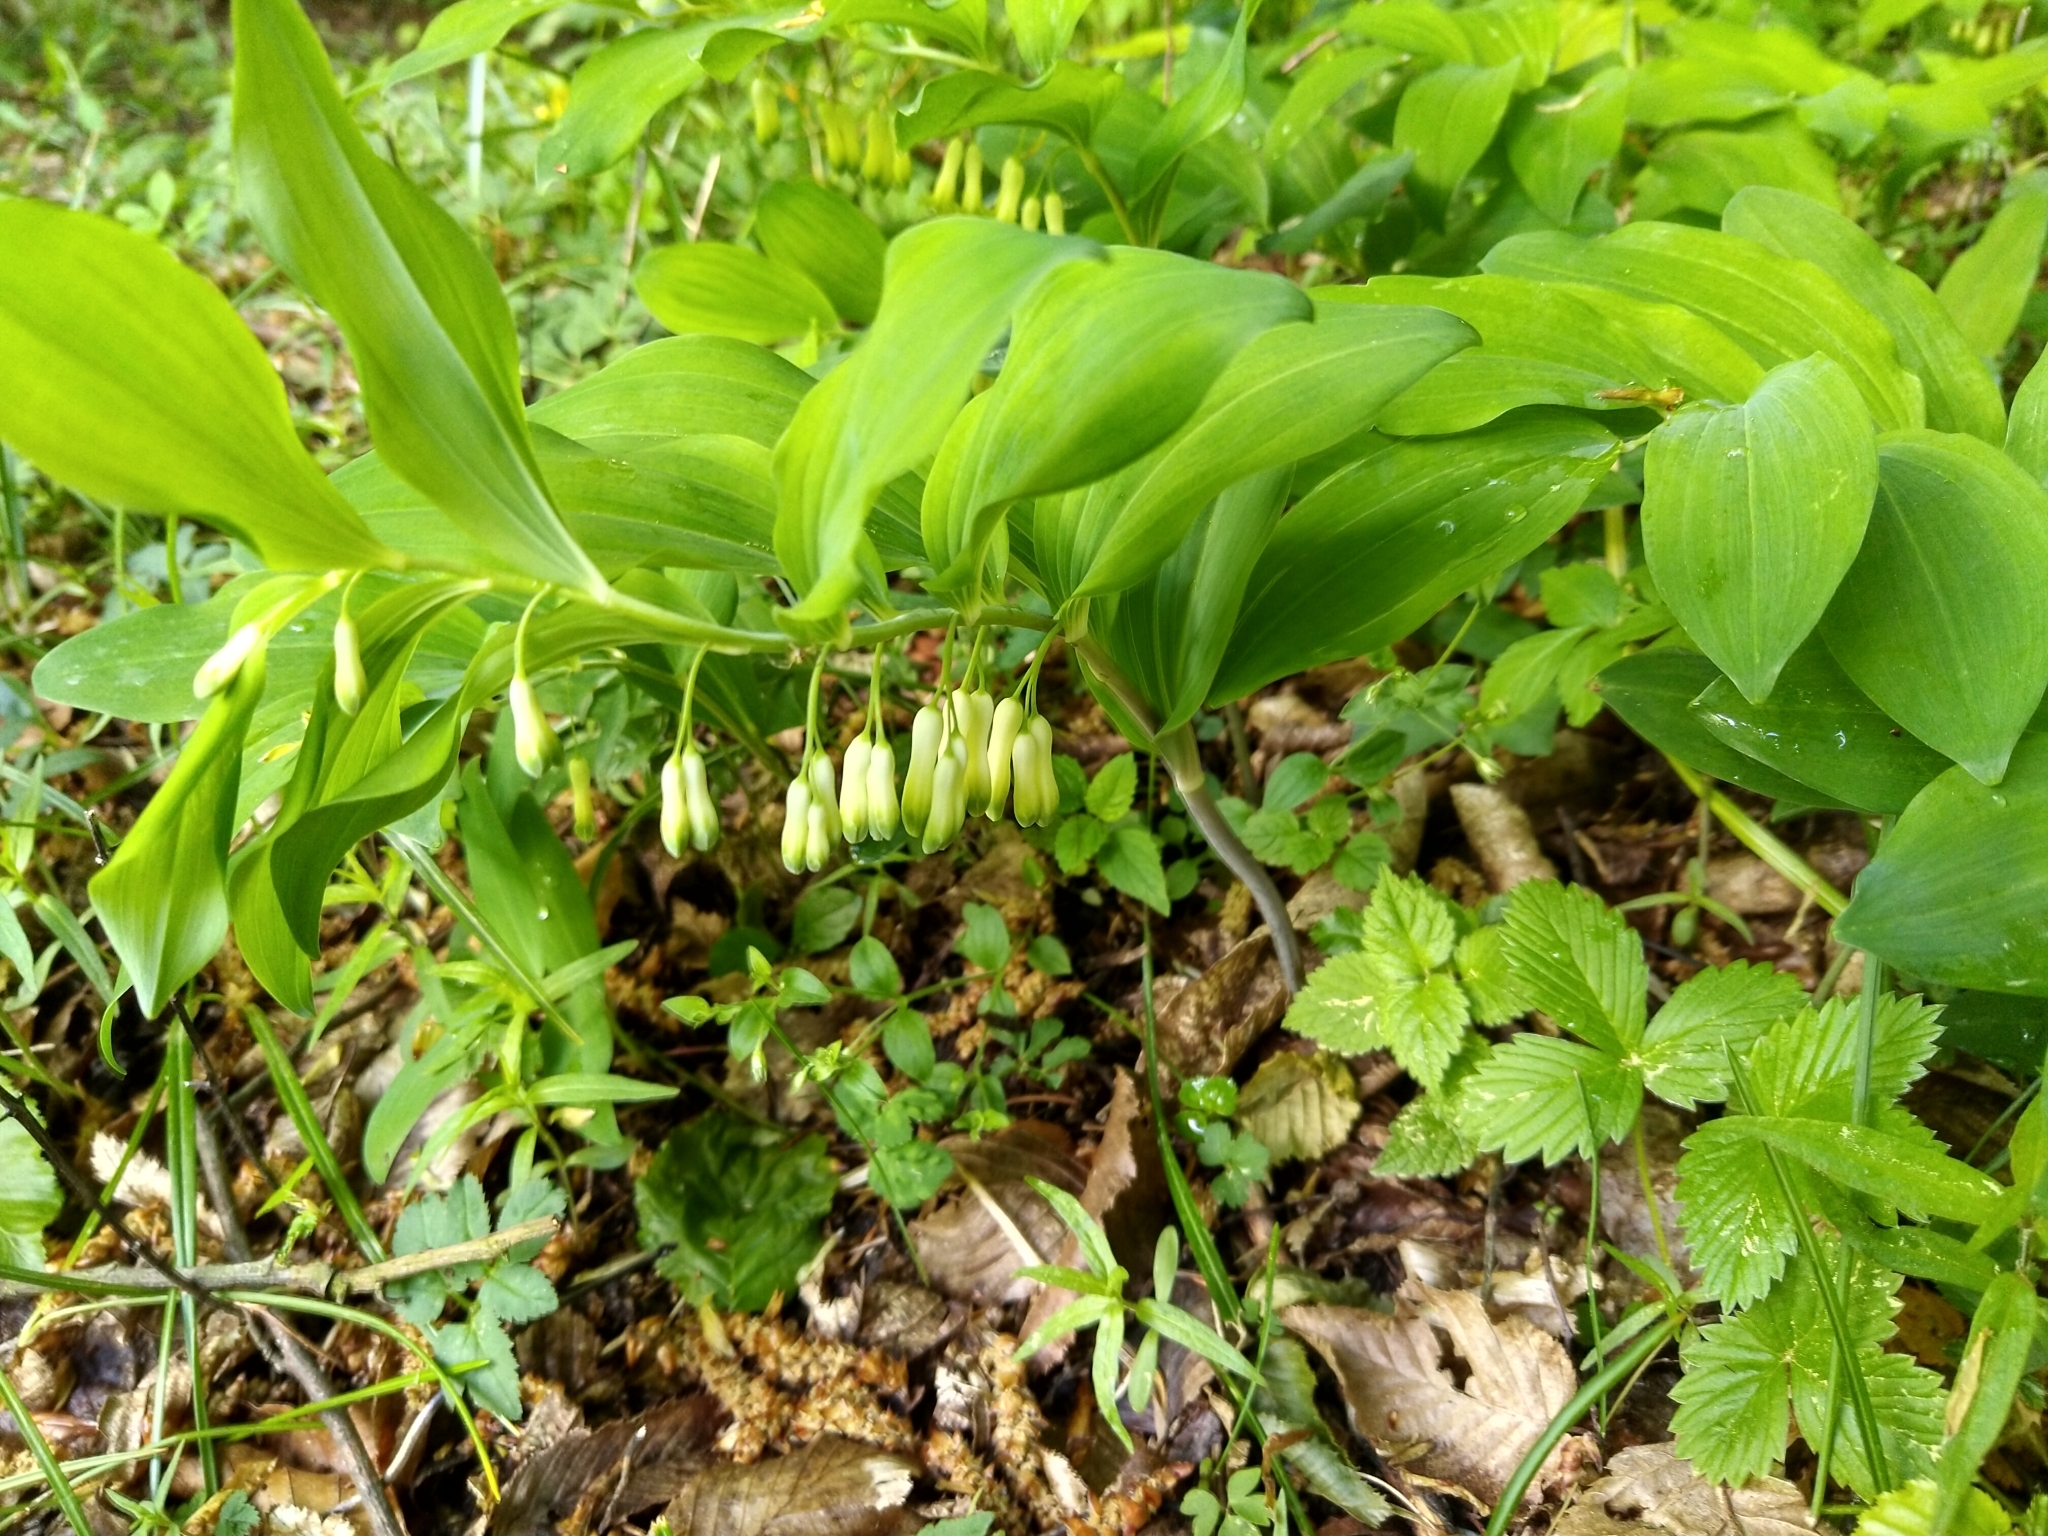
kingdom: Plantae
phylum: Tracheophyta
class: Liliopsida
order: Asparagales
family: Asparagaceae
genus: Polygonatum
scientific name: Polygonatum multiflorum
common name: Solomon's-seal
